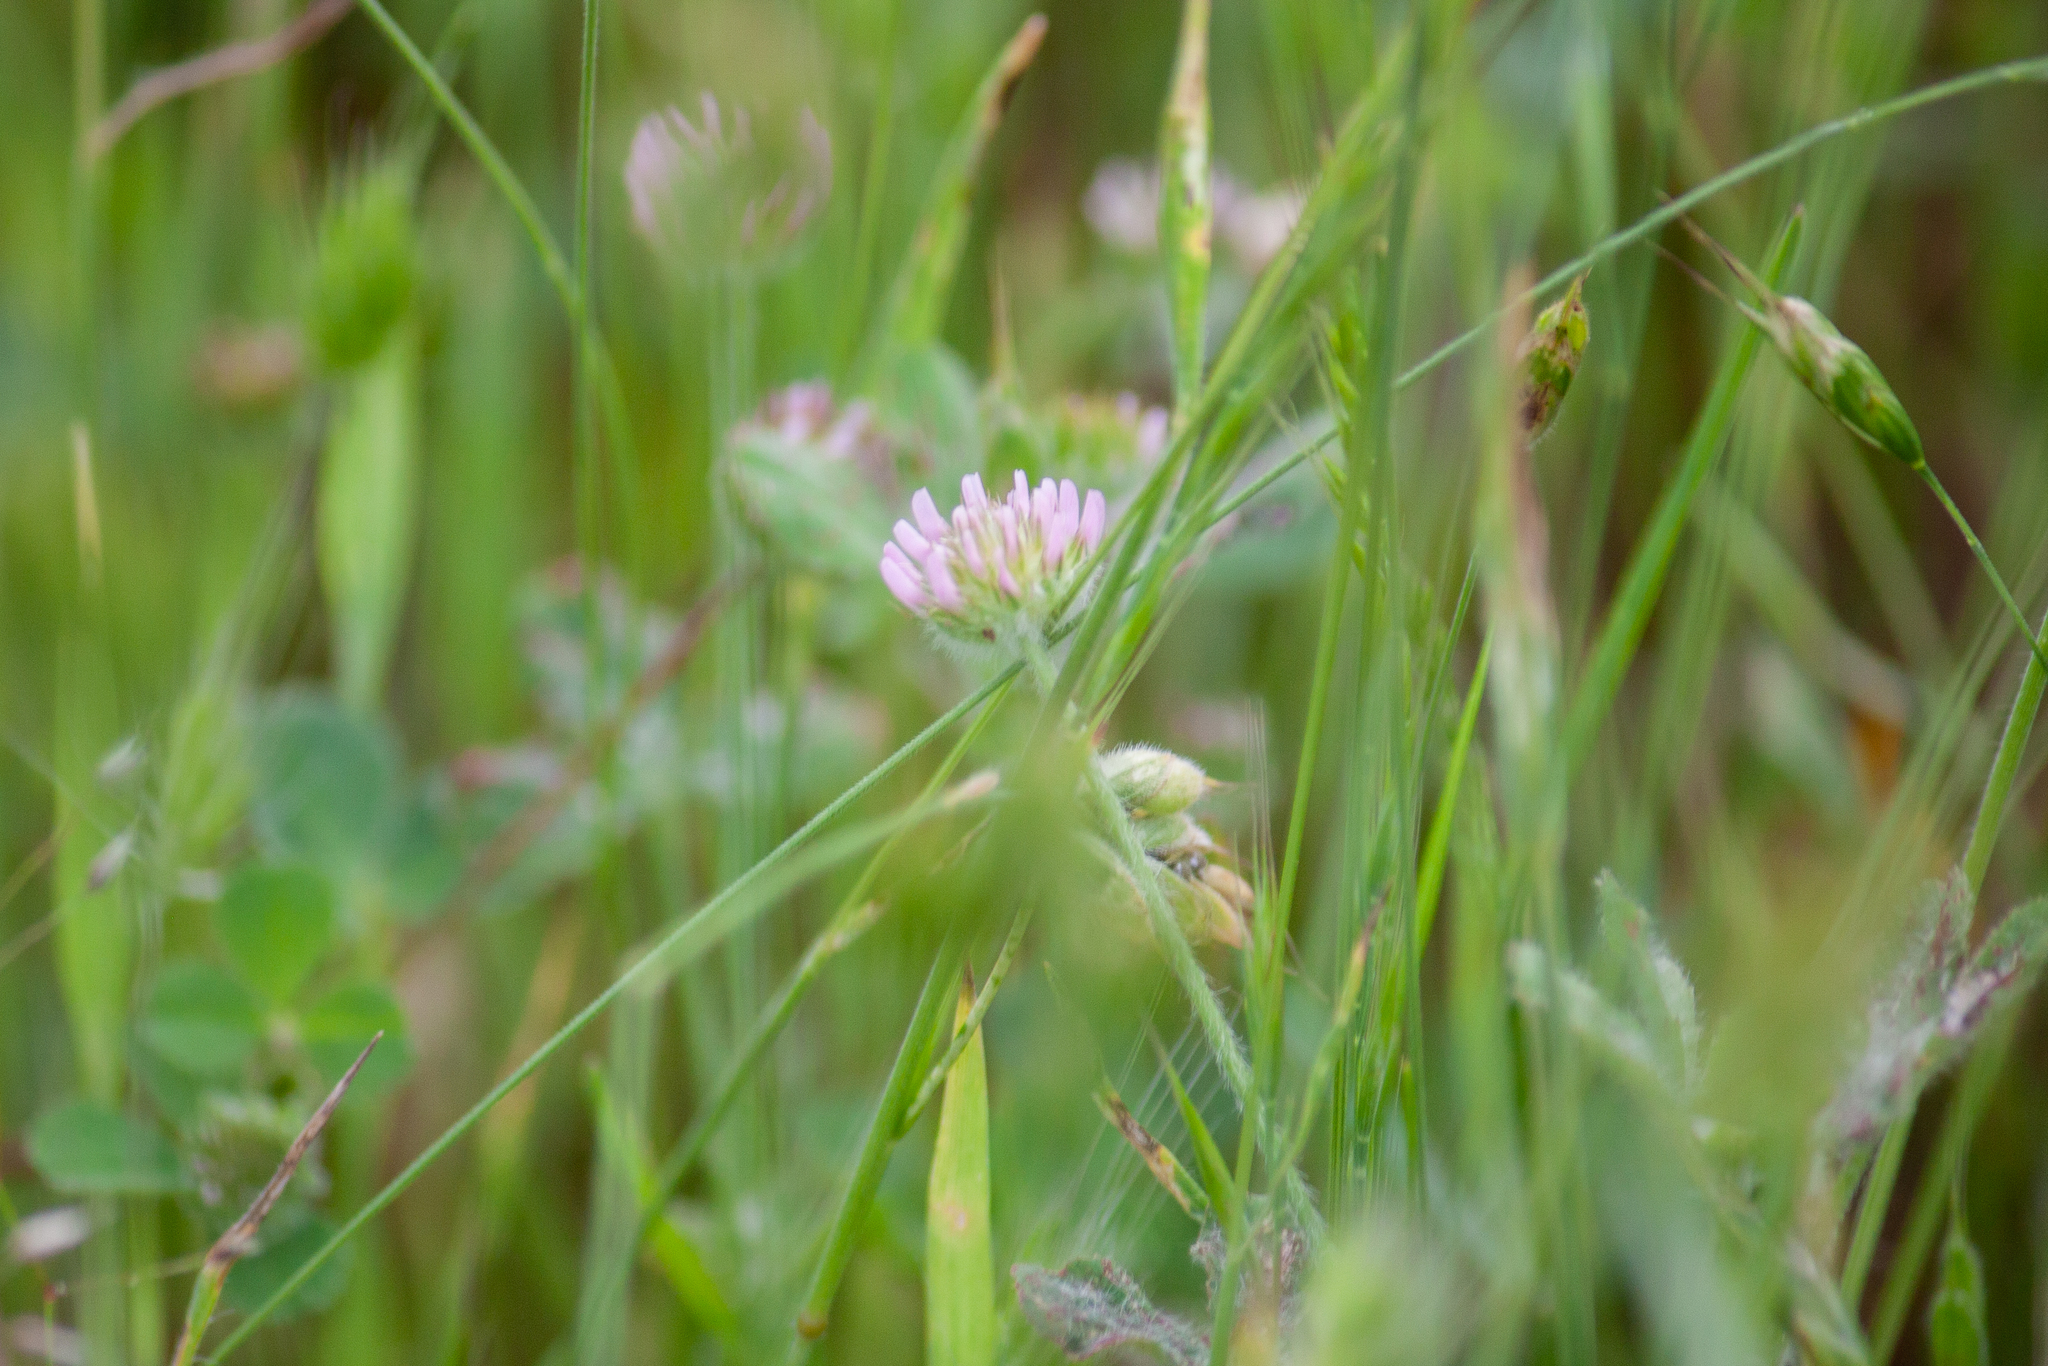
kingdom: Plantae
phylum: Tracheophyta
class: Magnoliopsida
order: Fabales
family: Fabaceae
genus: Trifolium
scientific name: Trifolium microcephalum
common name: Maiden clover
